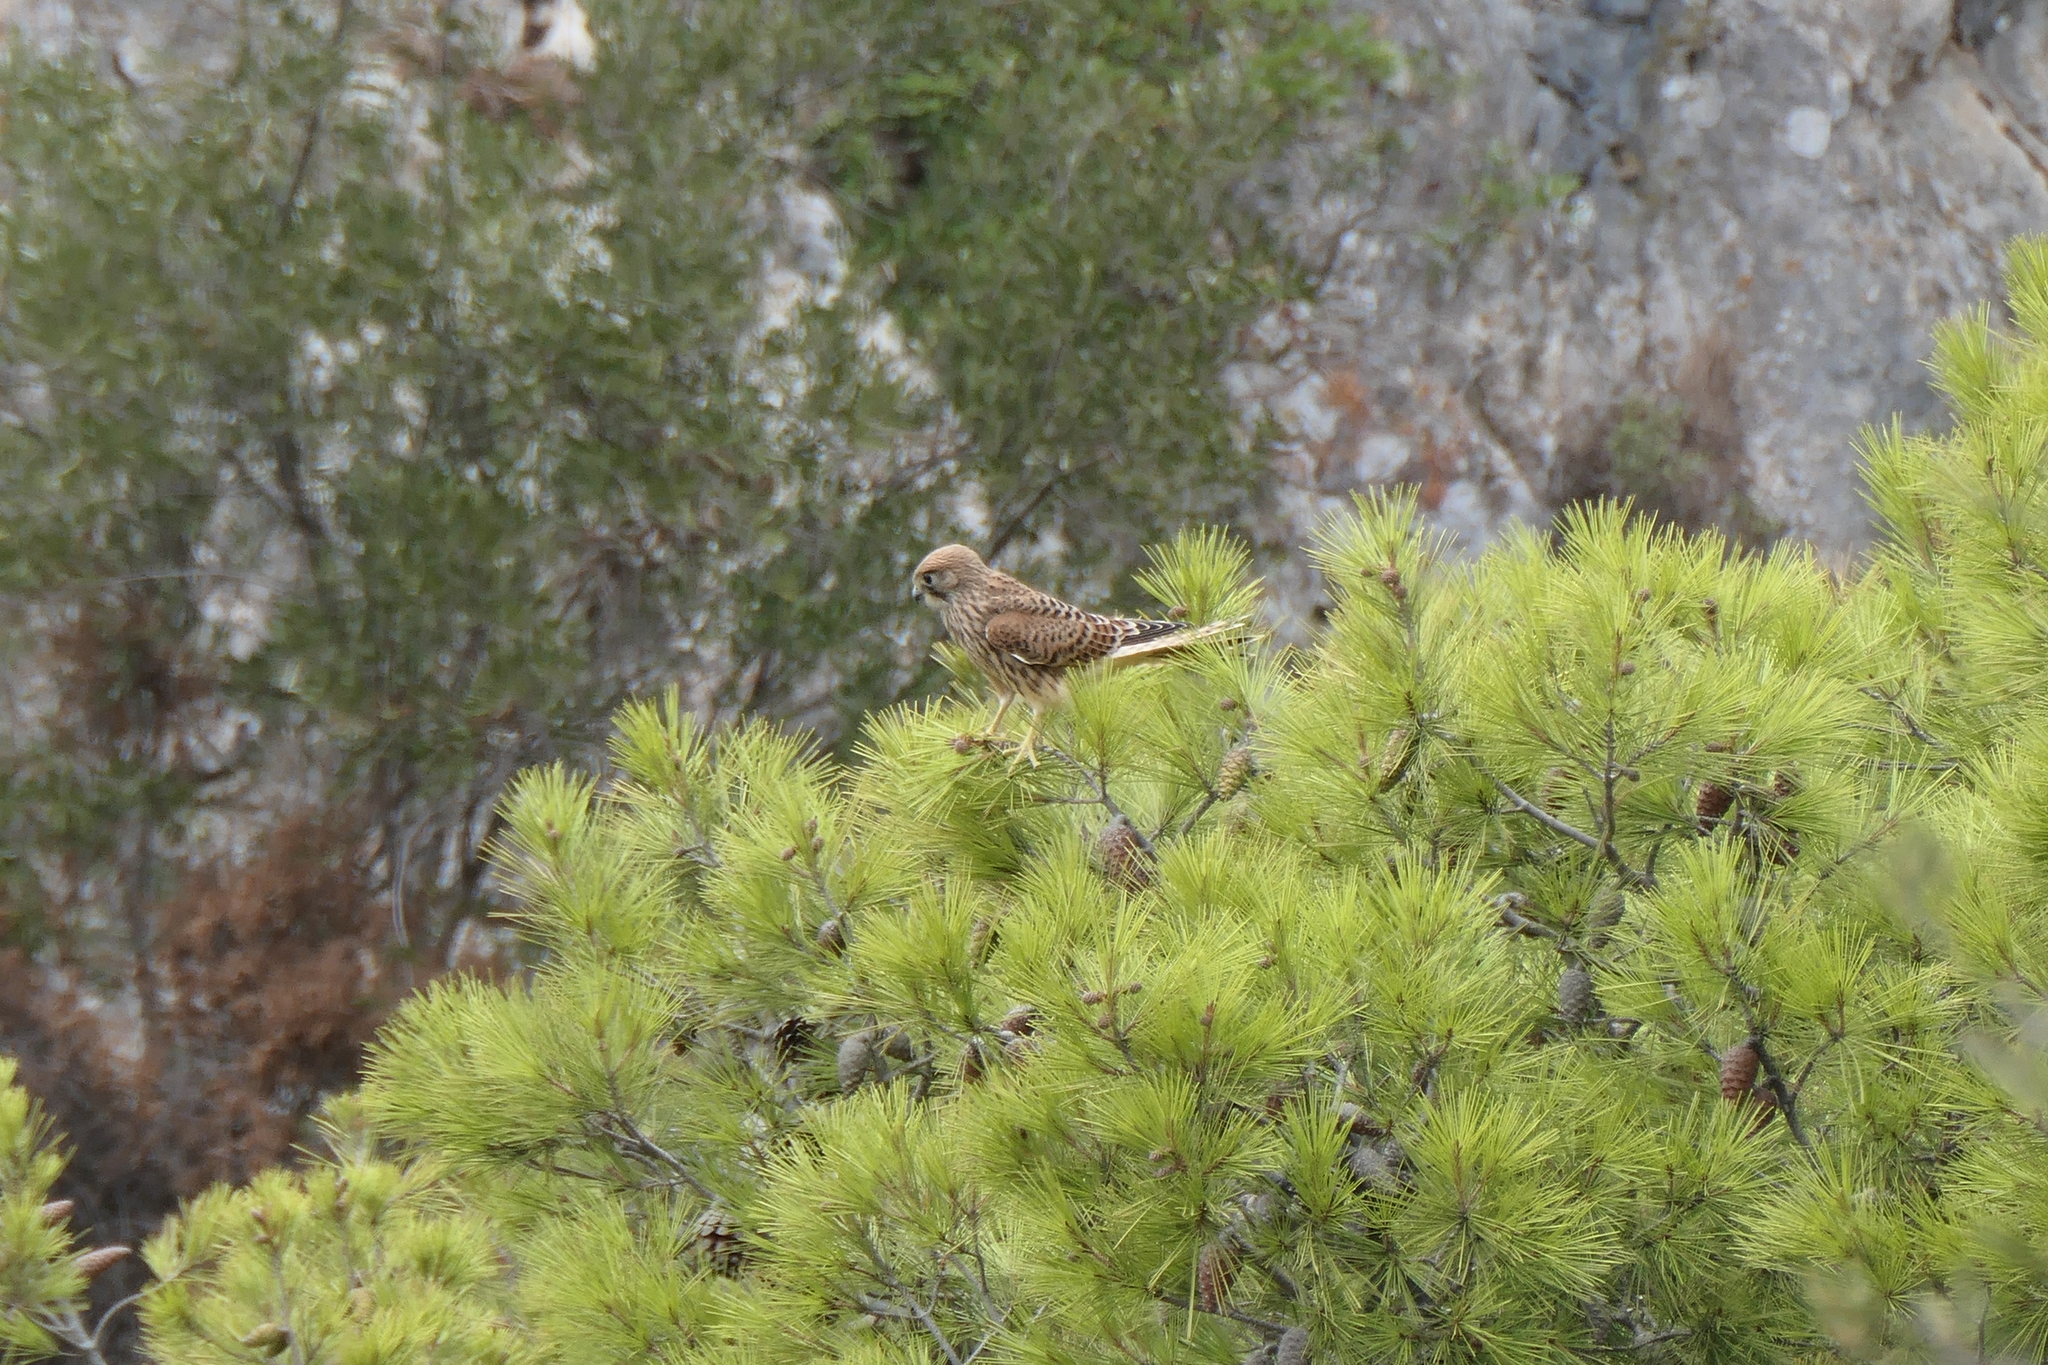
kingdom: Animalia
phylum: Chordata
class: Aves
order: Falconiformes
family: Falconidae
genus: Falco
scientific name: Falco tinnunculus
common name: Common kestrel
